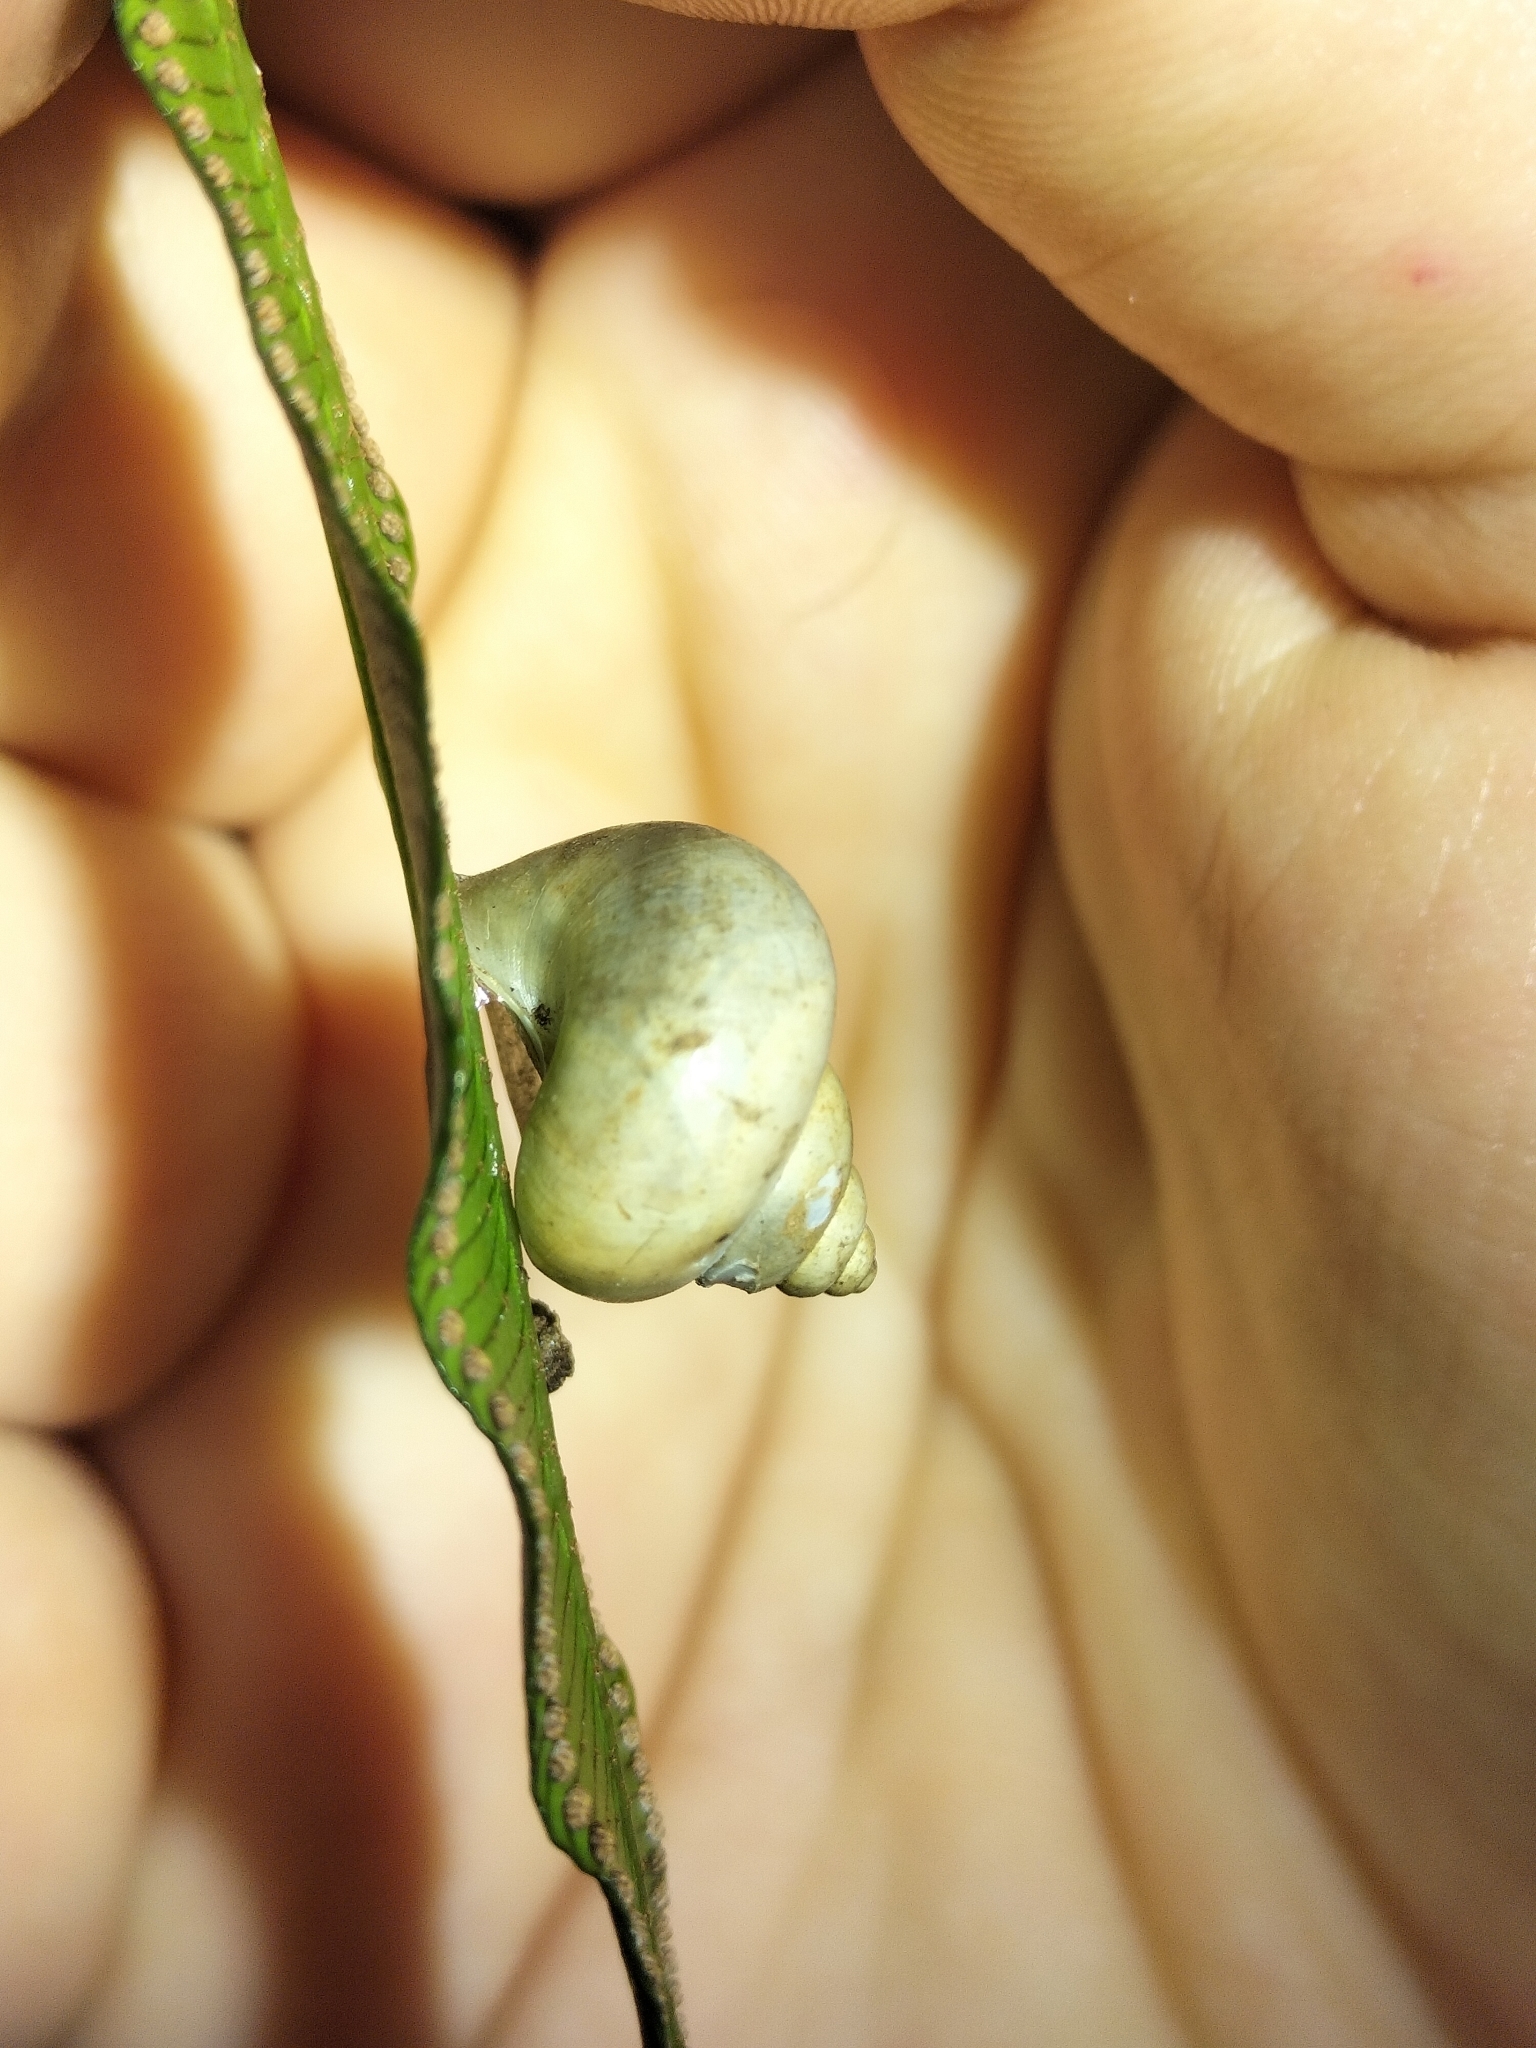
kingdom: Animalia
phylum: Mollusca
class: Gastropoda
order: Architaenioglossa
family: Cyclophoridae
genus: Leptopoma
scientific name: Leptopoma perlucidum
